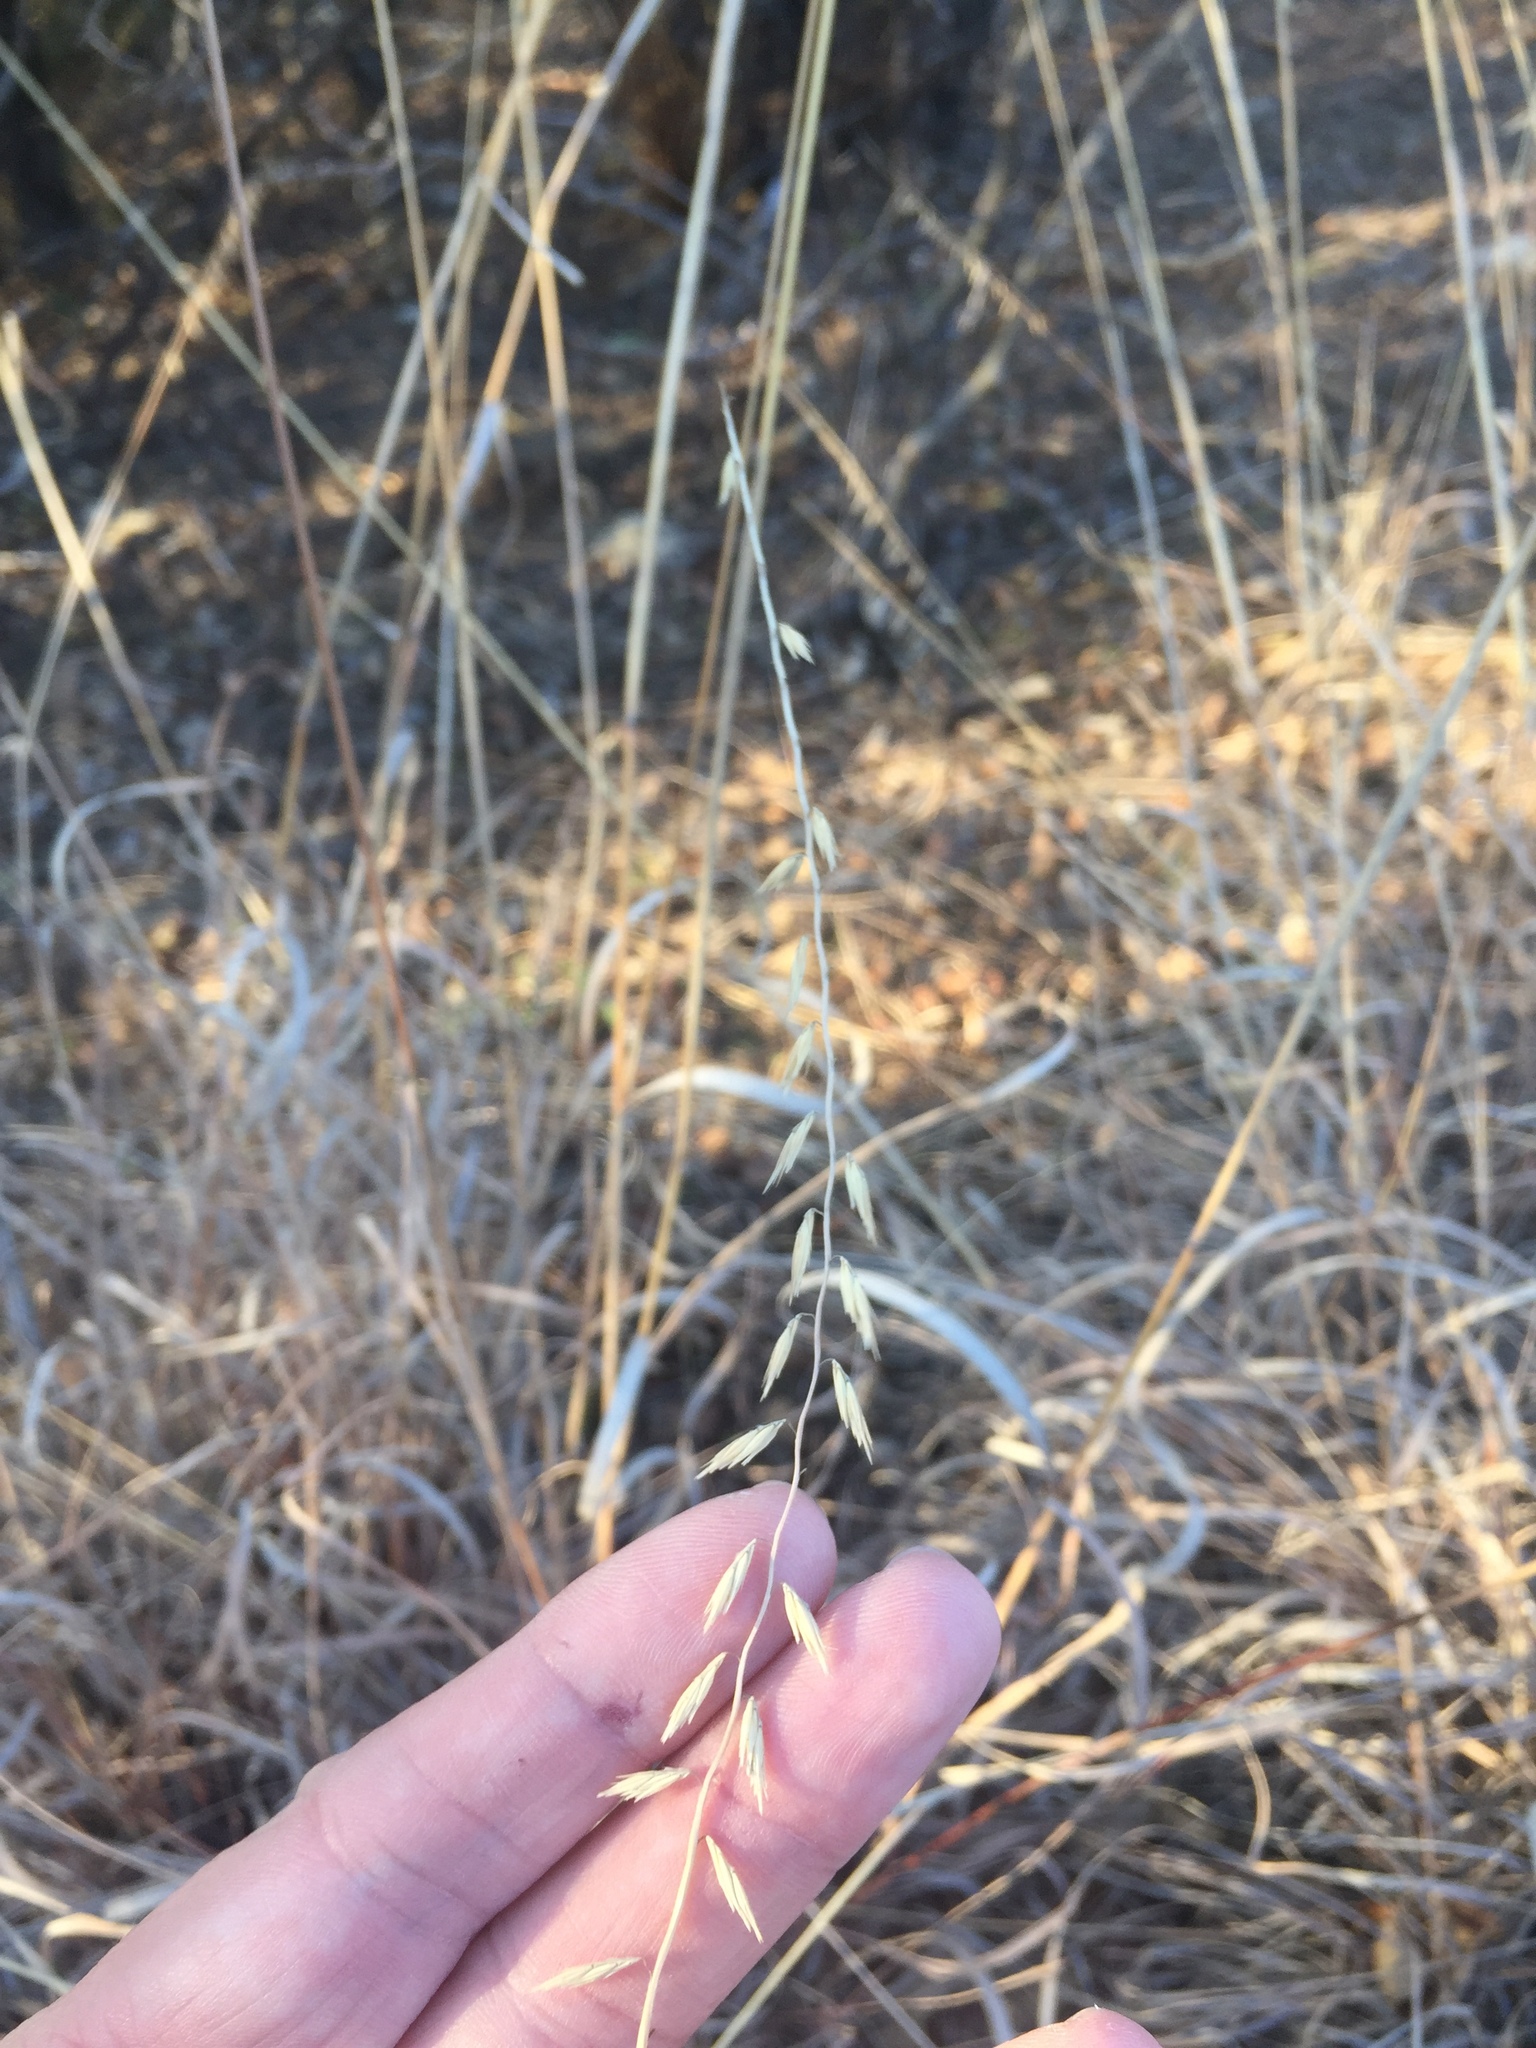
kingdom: Plantae
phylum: Tracheophyta
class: Liliopsida
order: Poales
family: Poaceae
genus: Bouteloua
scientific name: Bouteloua curtipendula
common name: Side-oats grama
